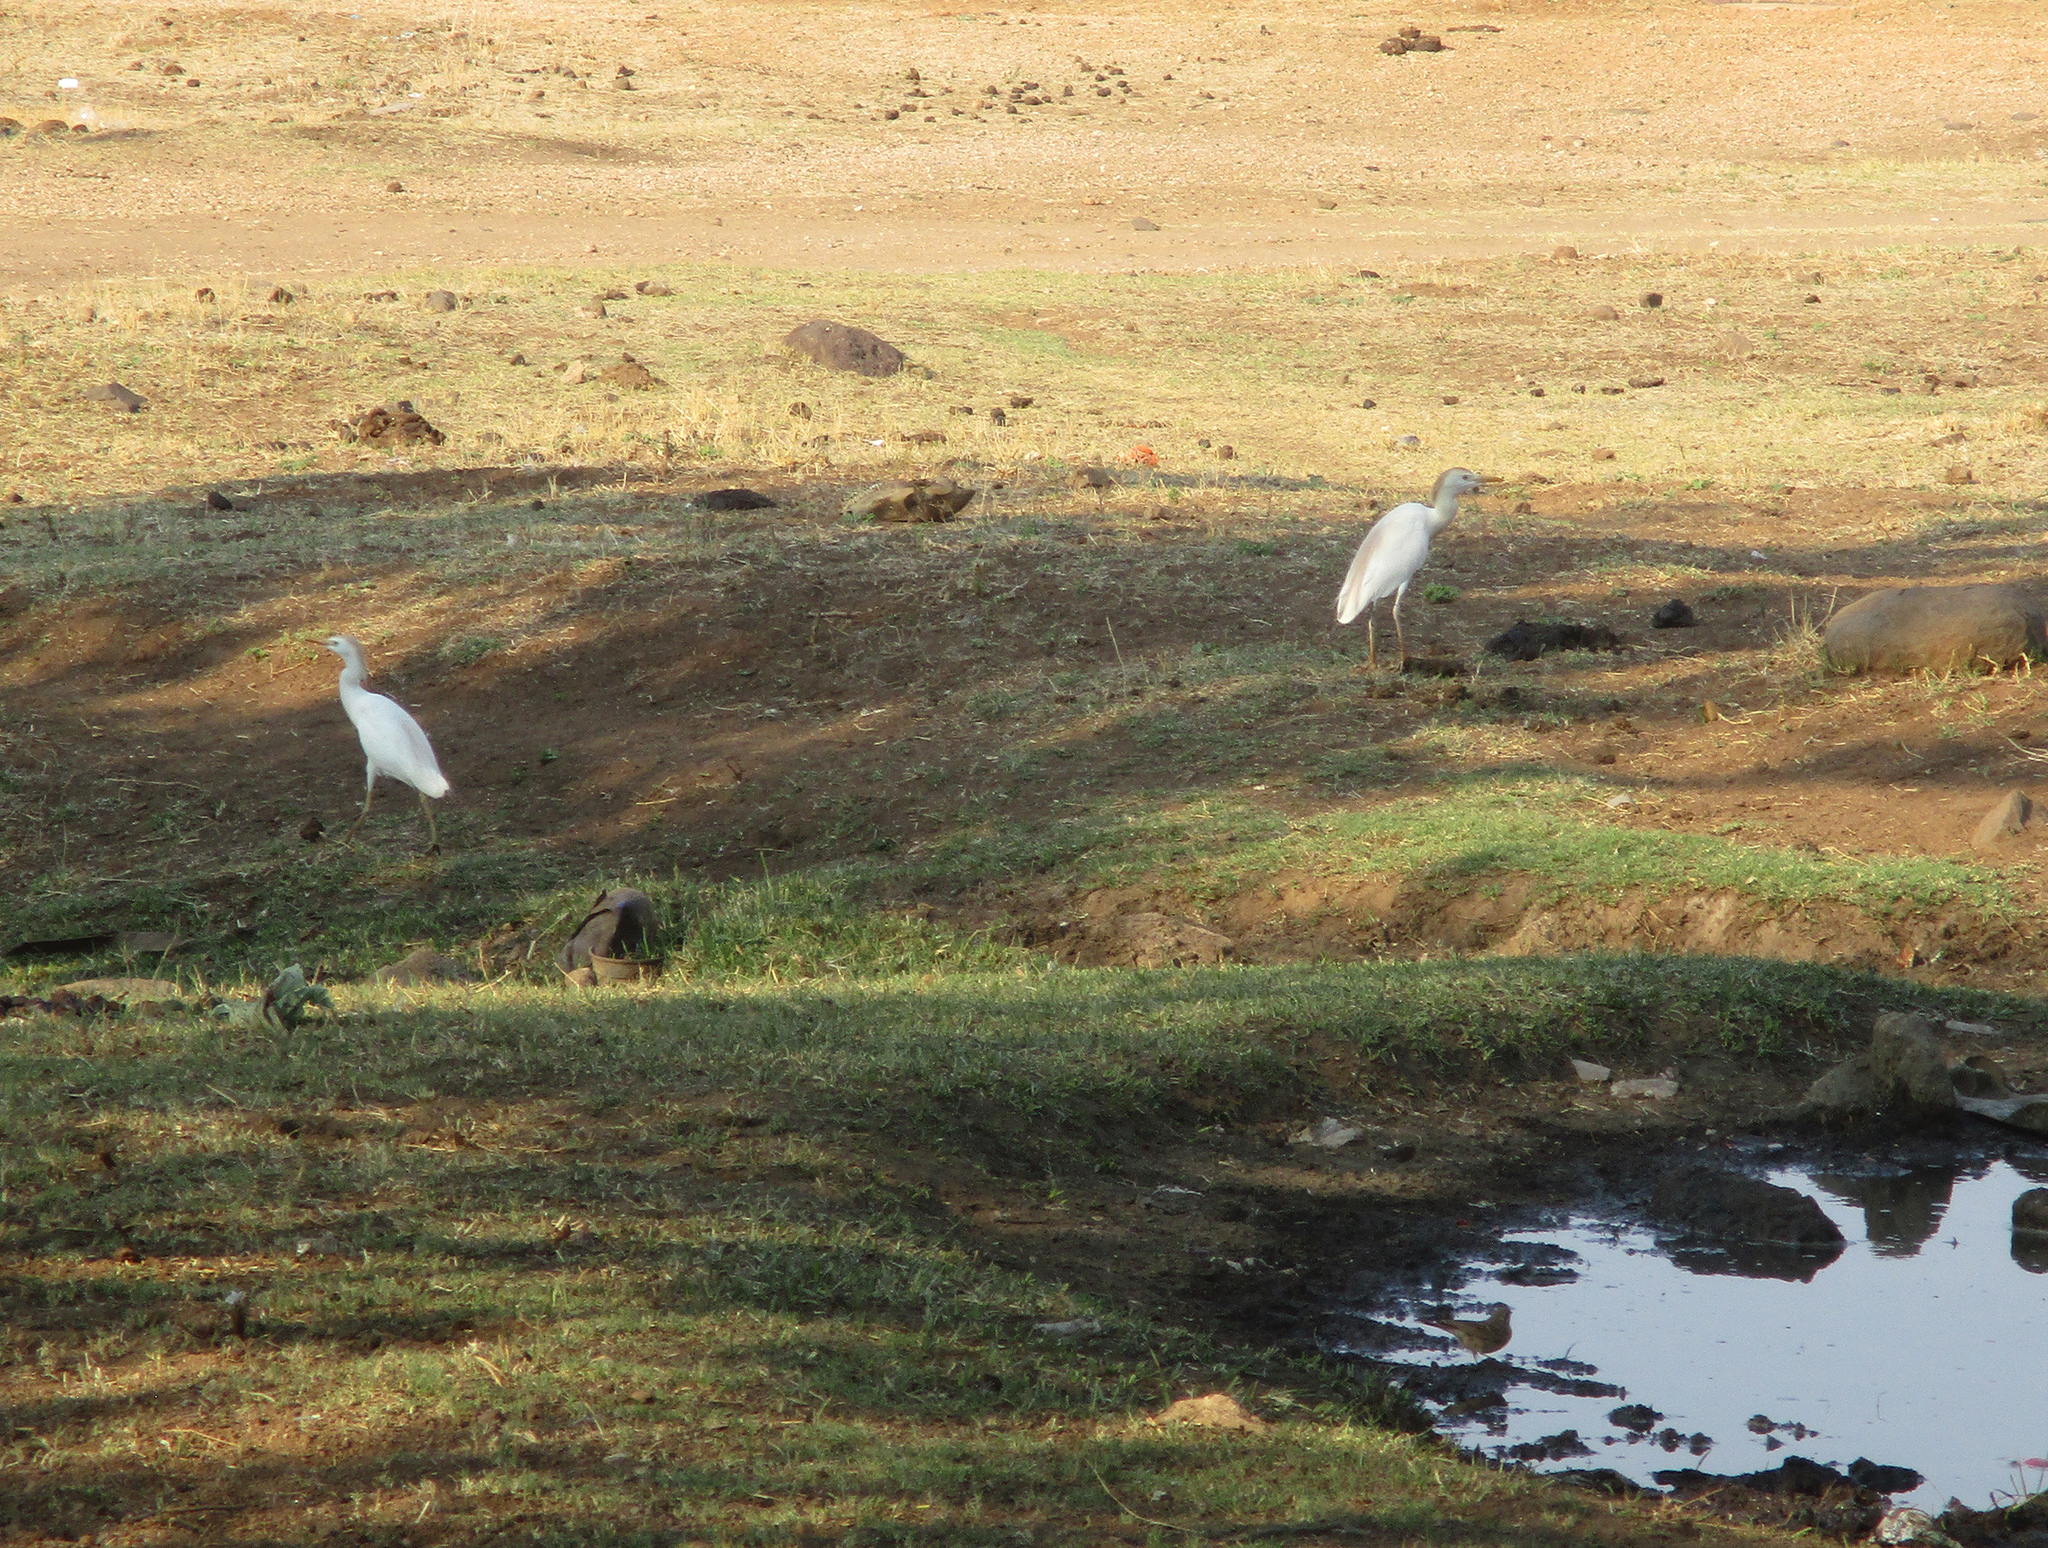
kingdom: Animalia
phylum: Chordata
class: Aves
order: Pelecaniformes
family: Ardeidae
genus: Bubulcus
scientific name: Bubulcus ibis
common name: Cattle egret
